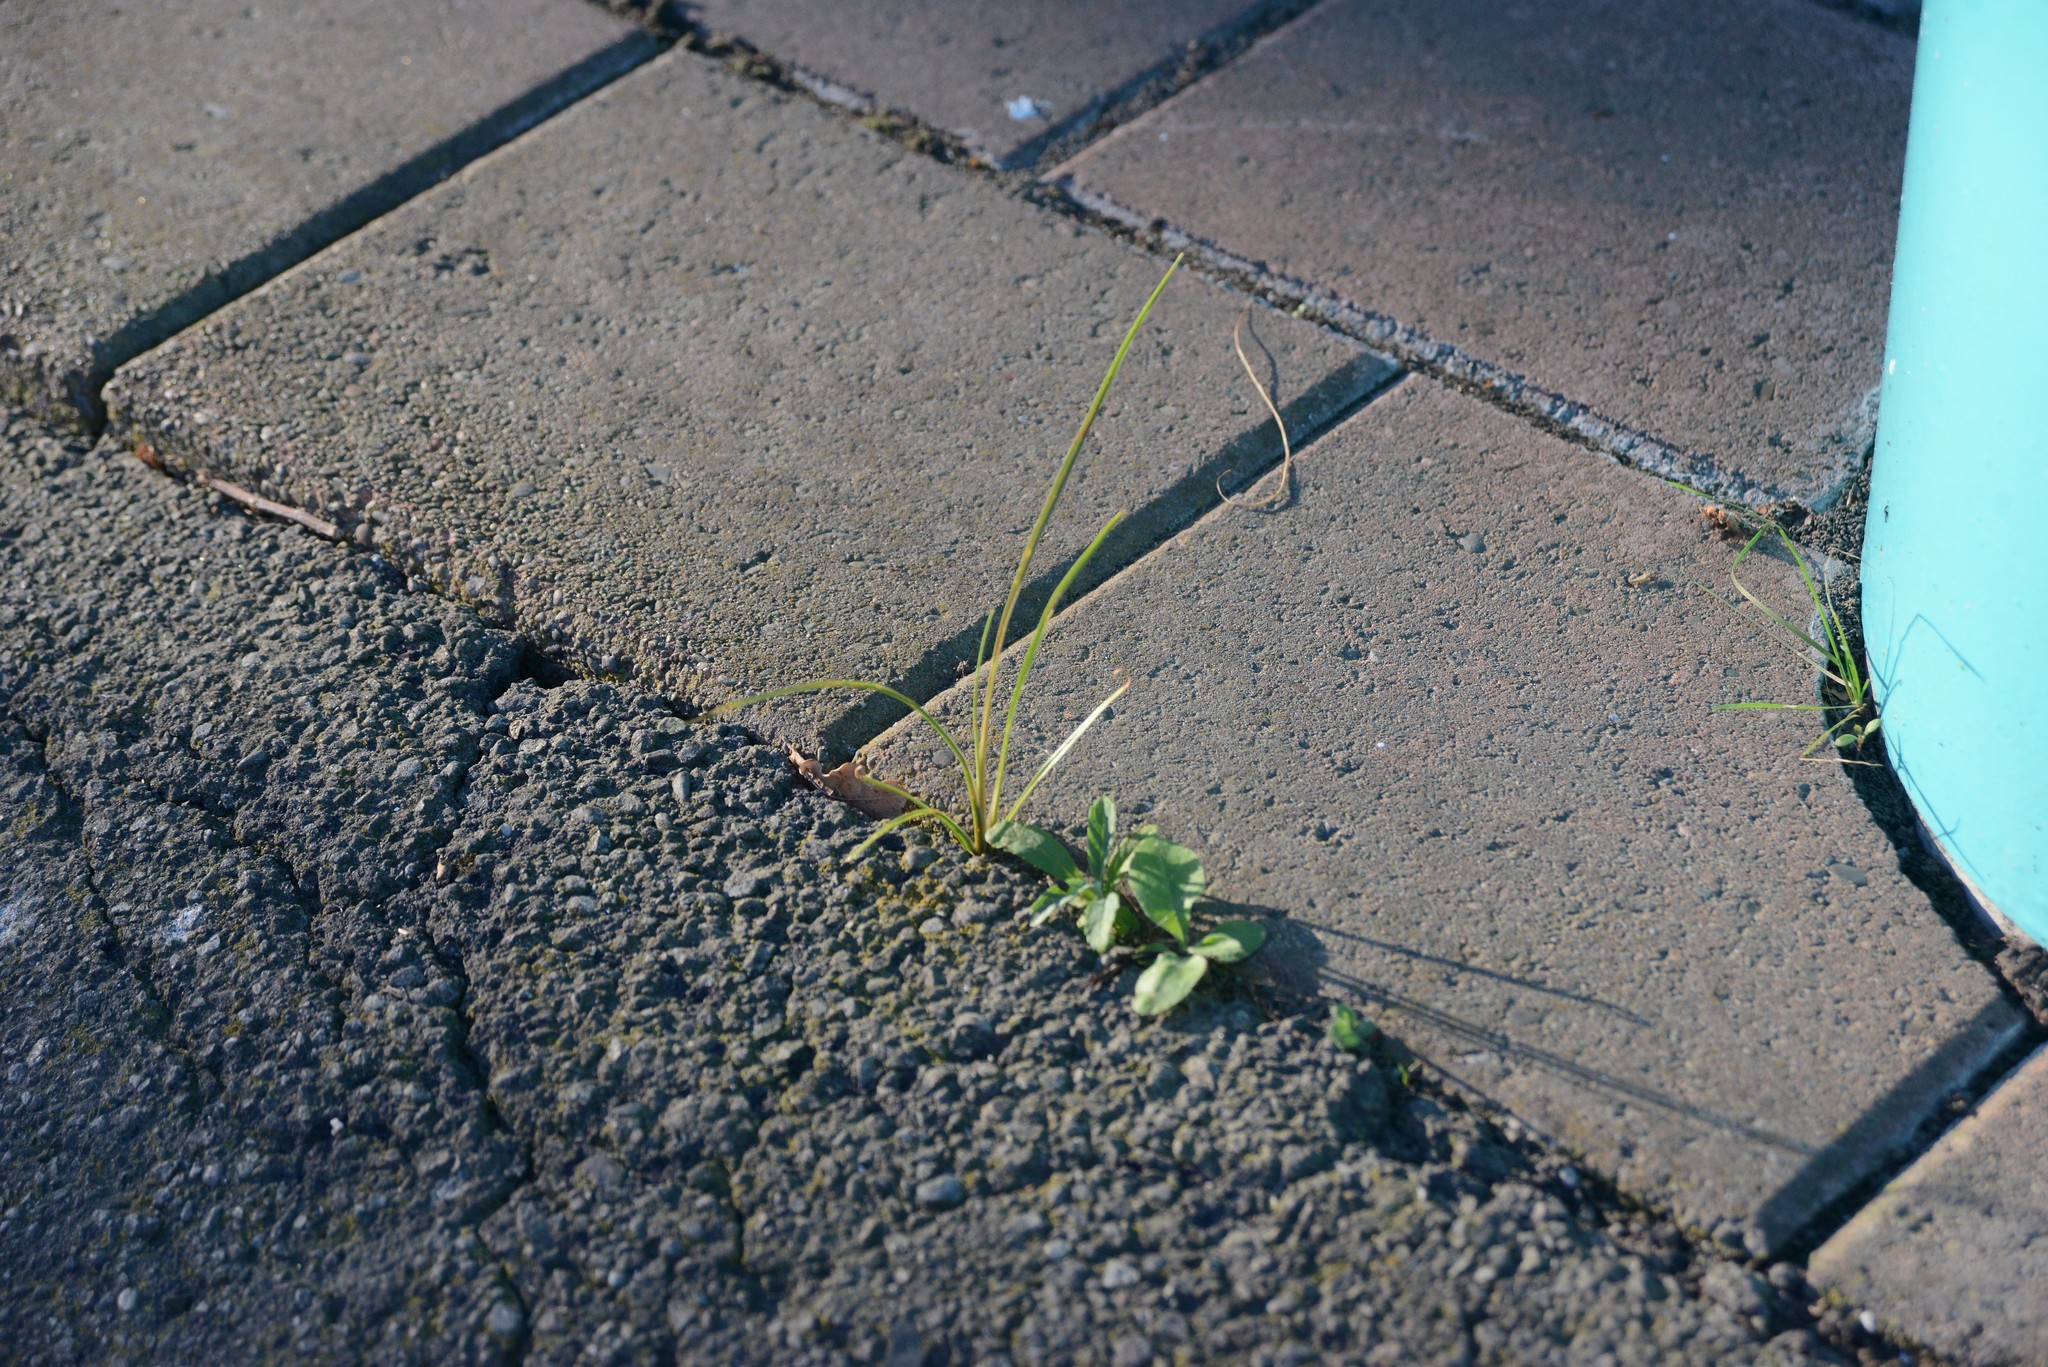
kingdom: Plantae
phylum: Tracheophyta
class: Liliopsida
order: Asparagales
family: Asparagaceae
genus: Cordyline
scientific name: Cordyline australis
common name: Cabbage-palm
